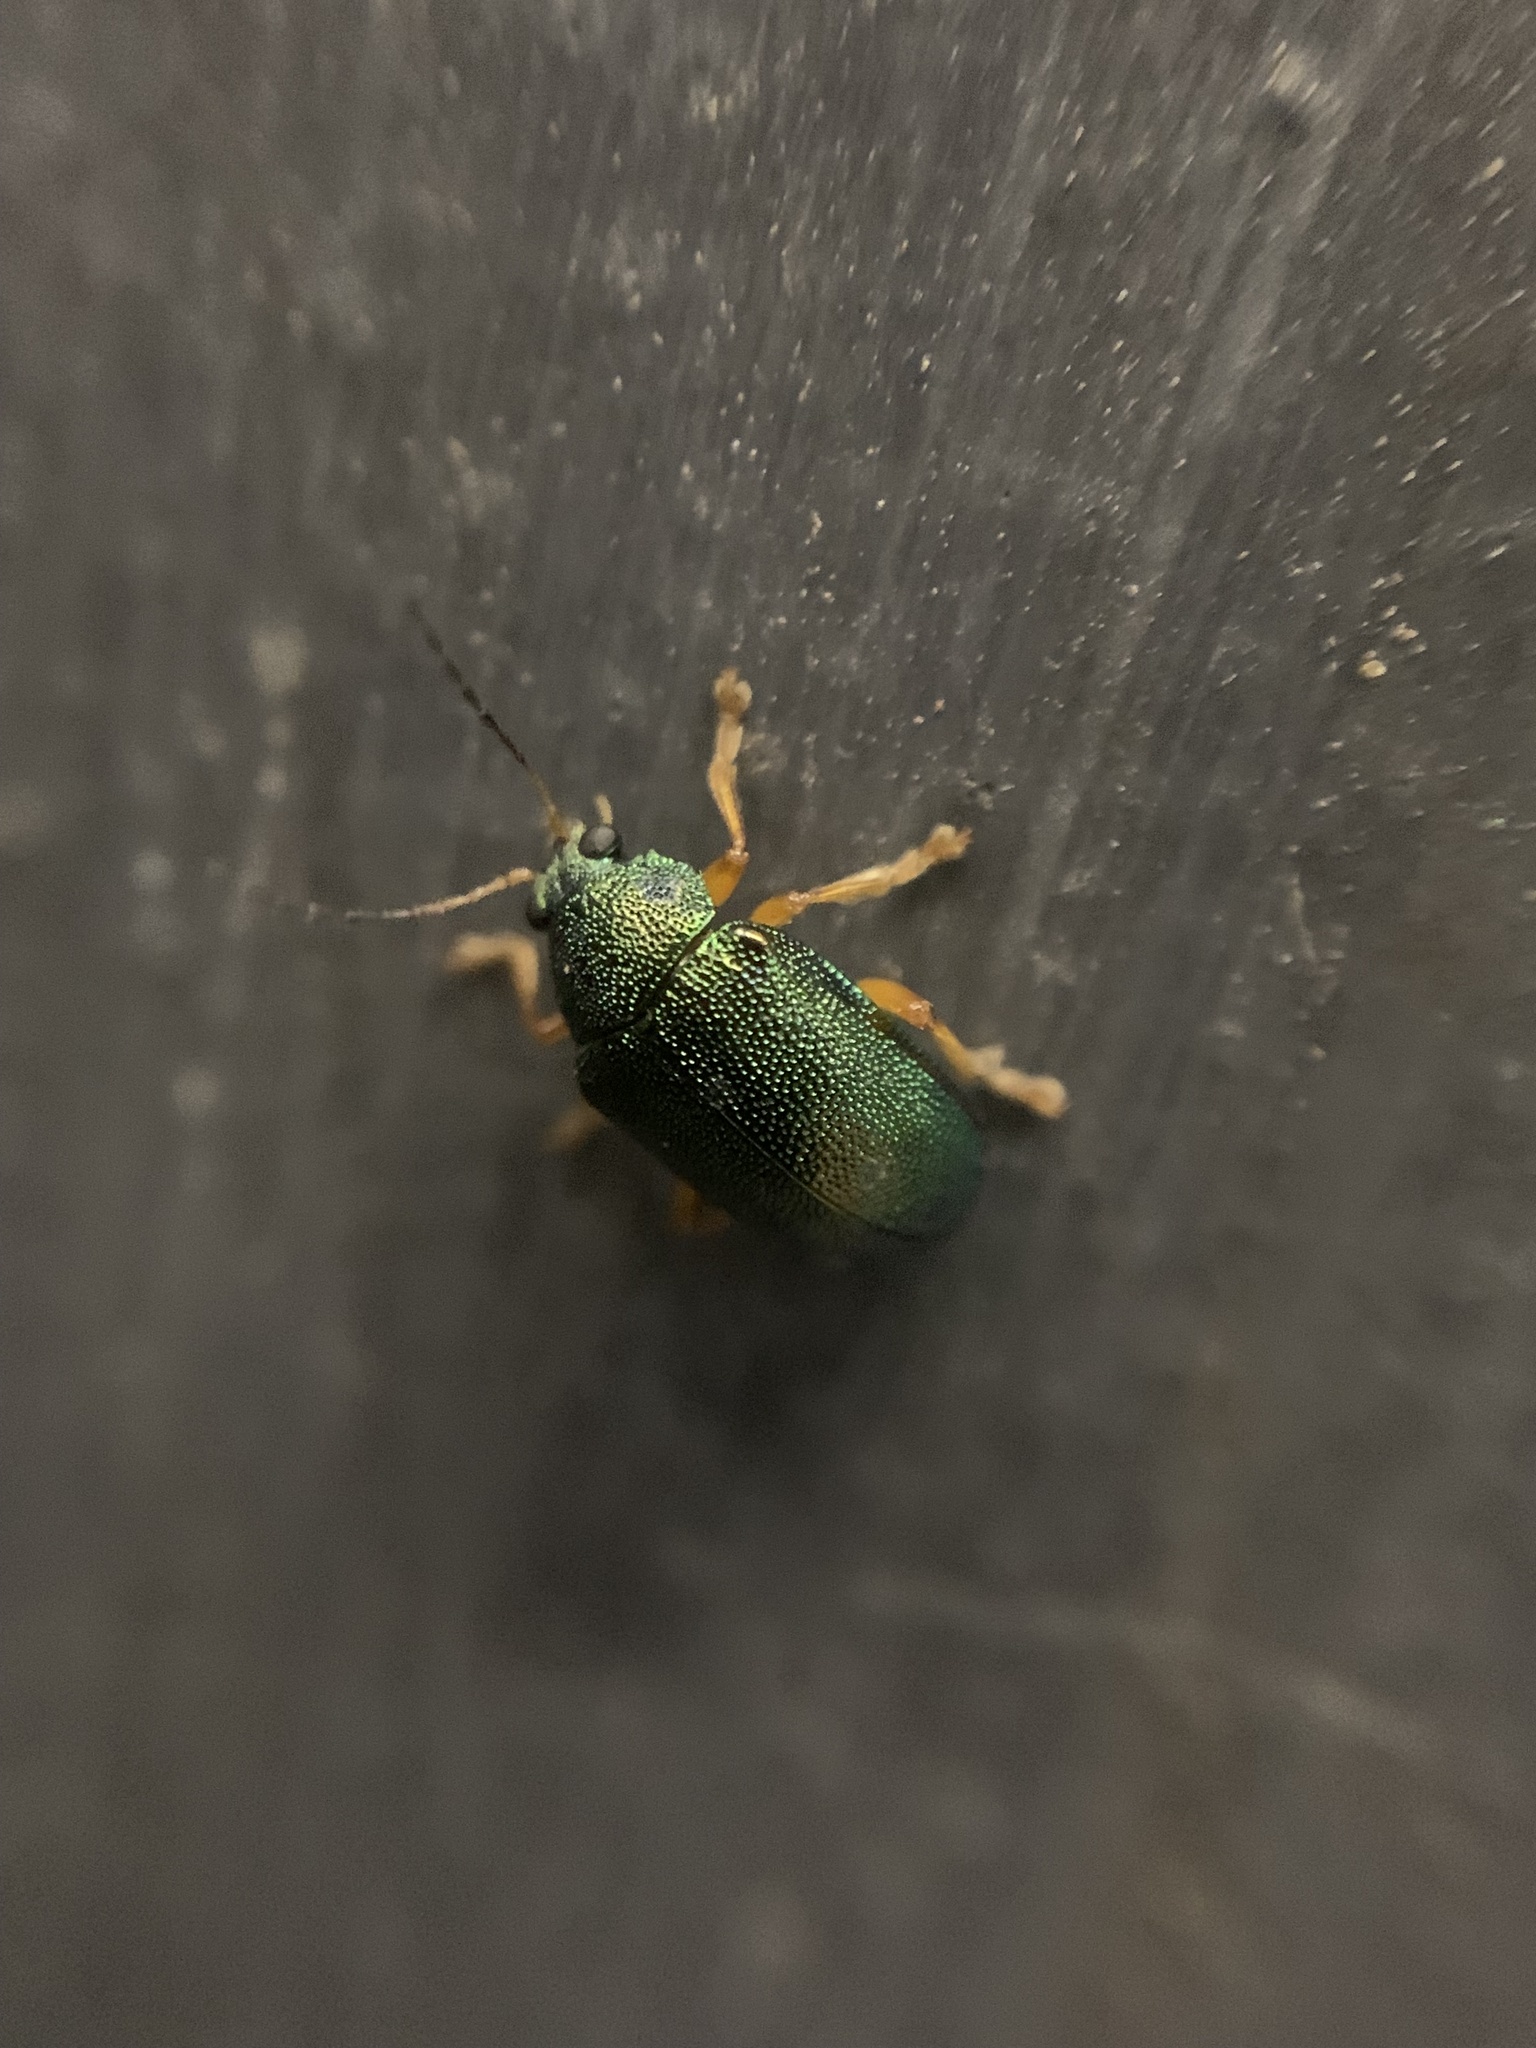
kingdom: Animalia
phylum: Arthropoda
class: Insecta
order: Coleoptera
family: Chrysomelidae
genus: Colaspis
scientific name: Colaspis
